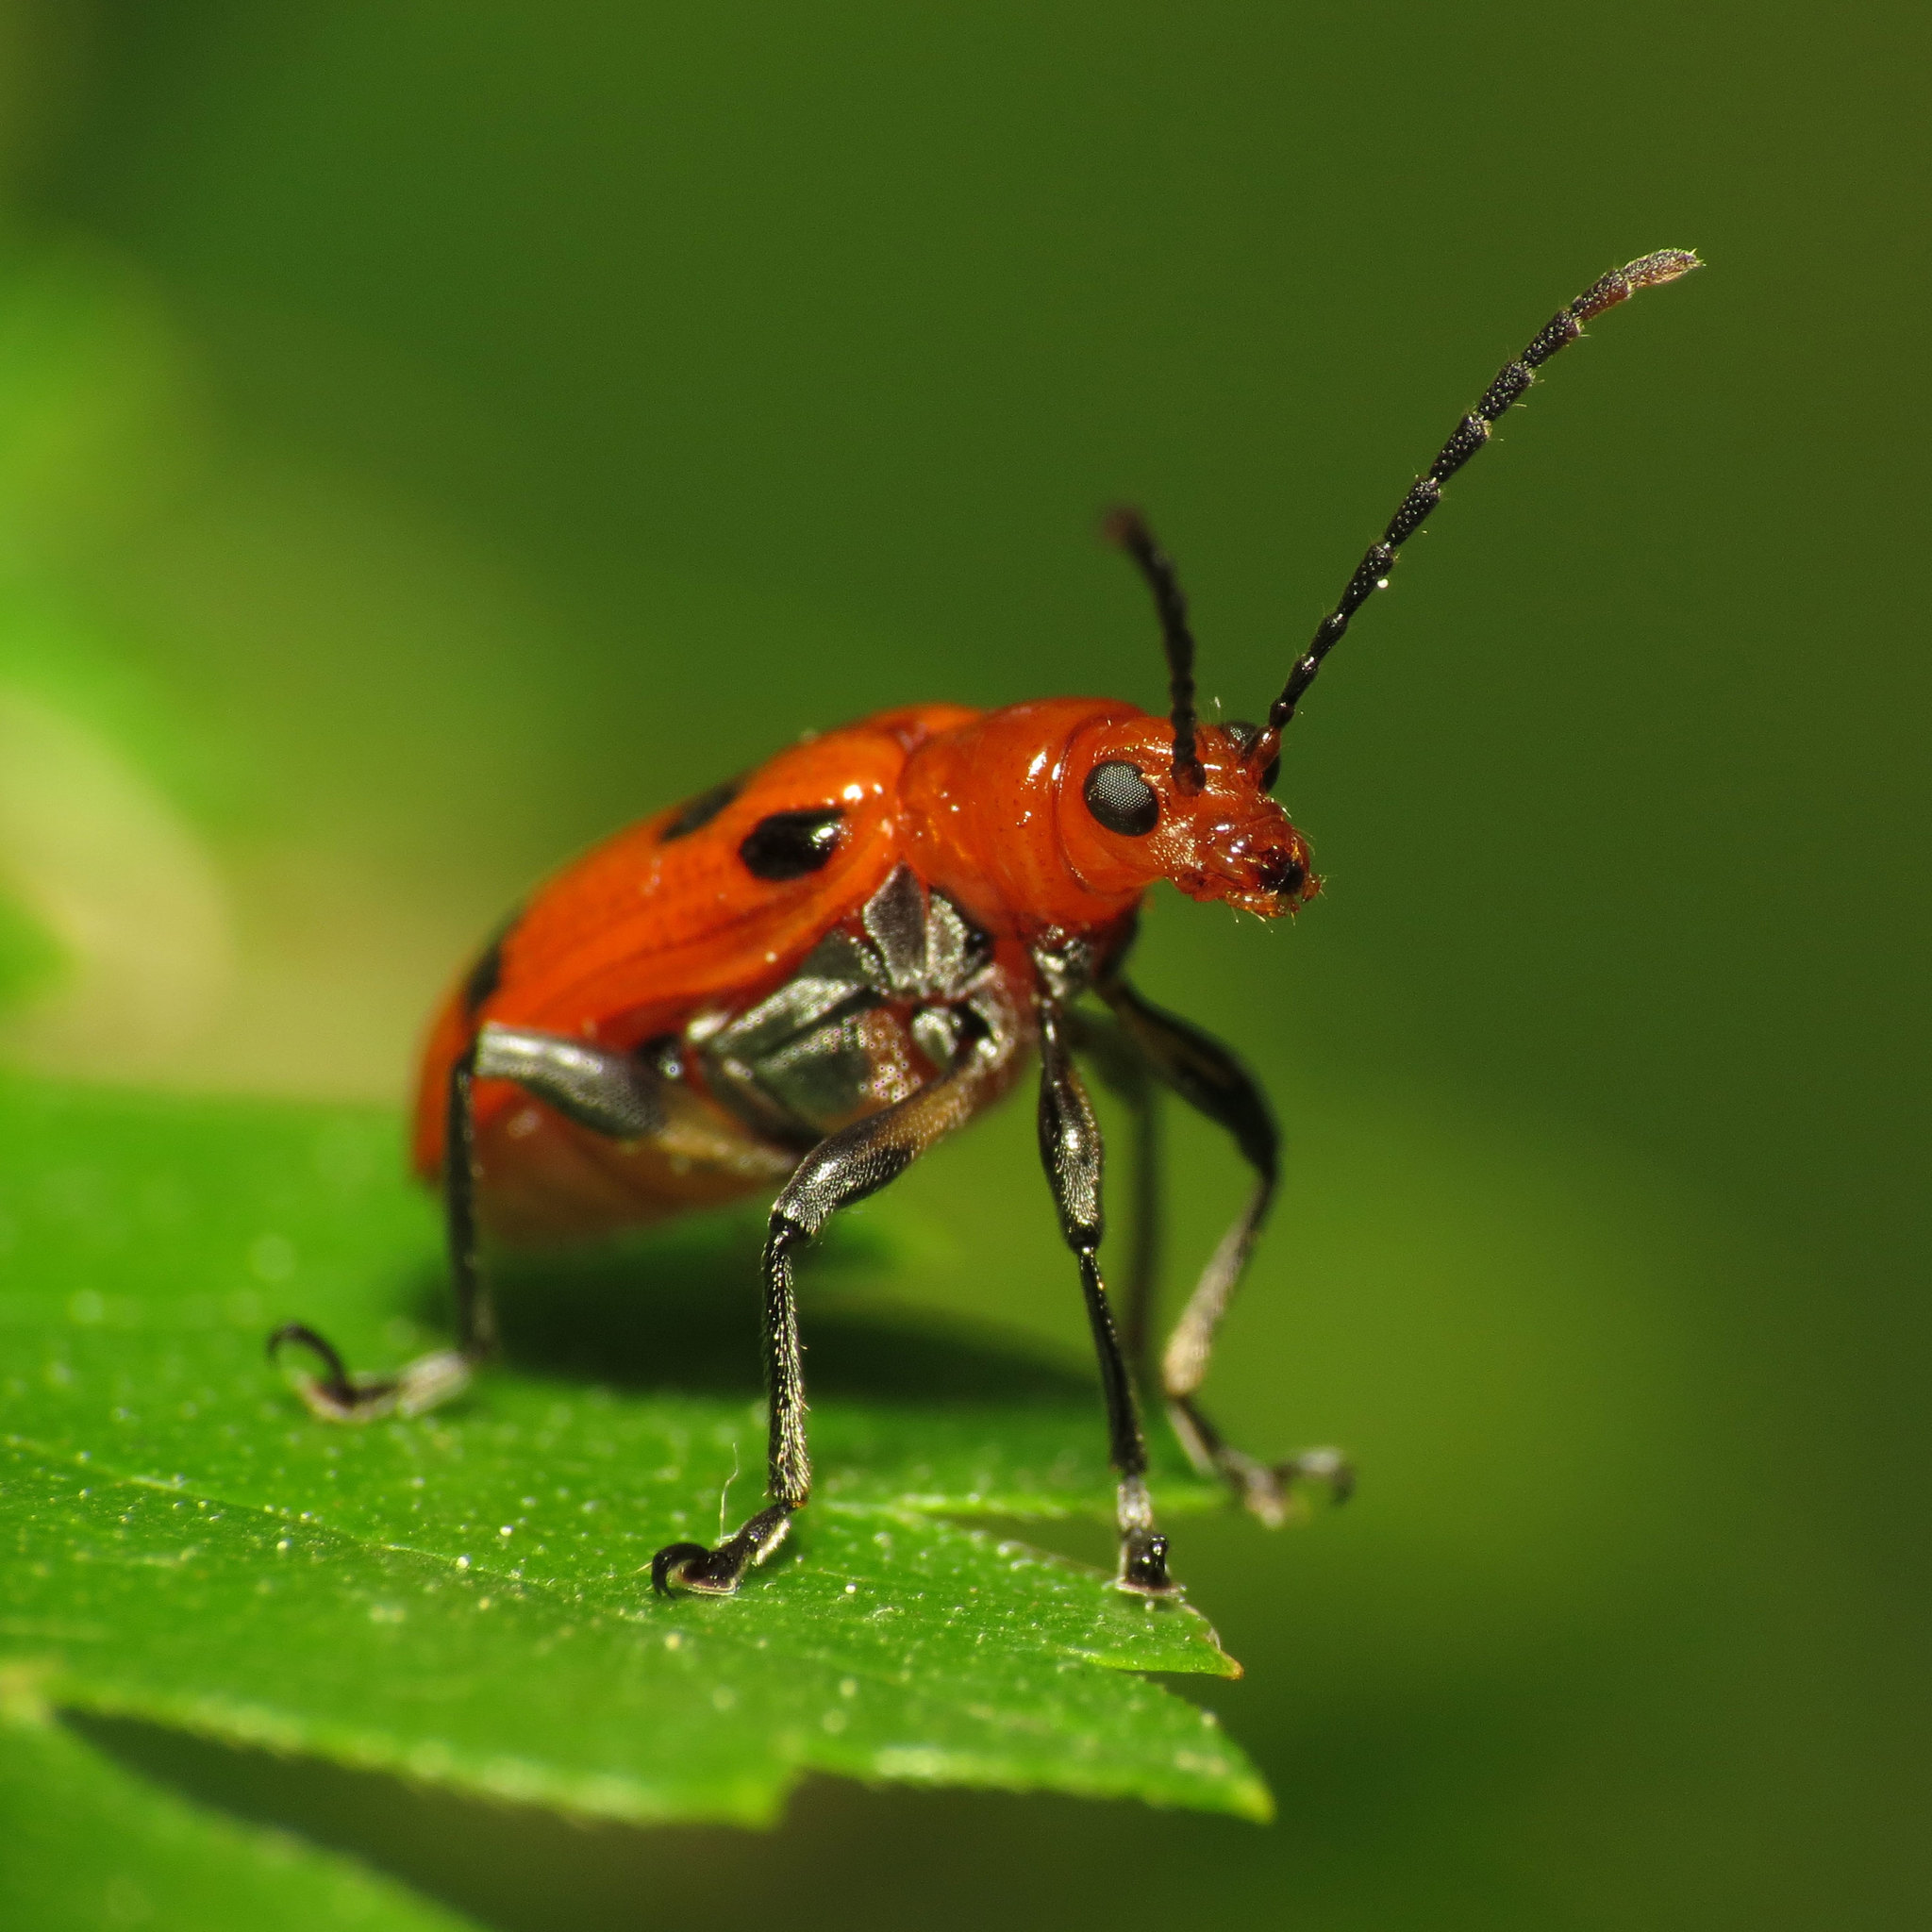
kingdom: Animalia
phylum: Arthropoda
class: Insecta
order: Coleoptera
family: Chrysomelidae
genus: Neolema
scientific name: Neolema sexpunctata
